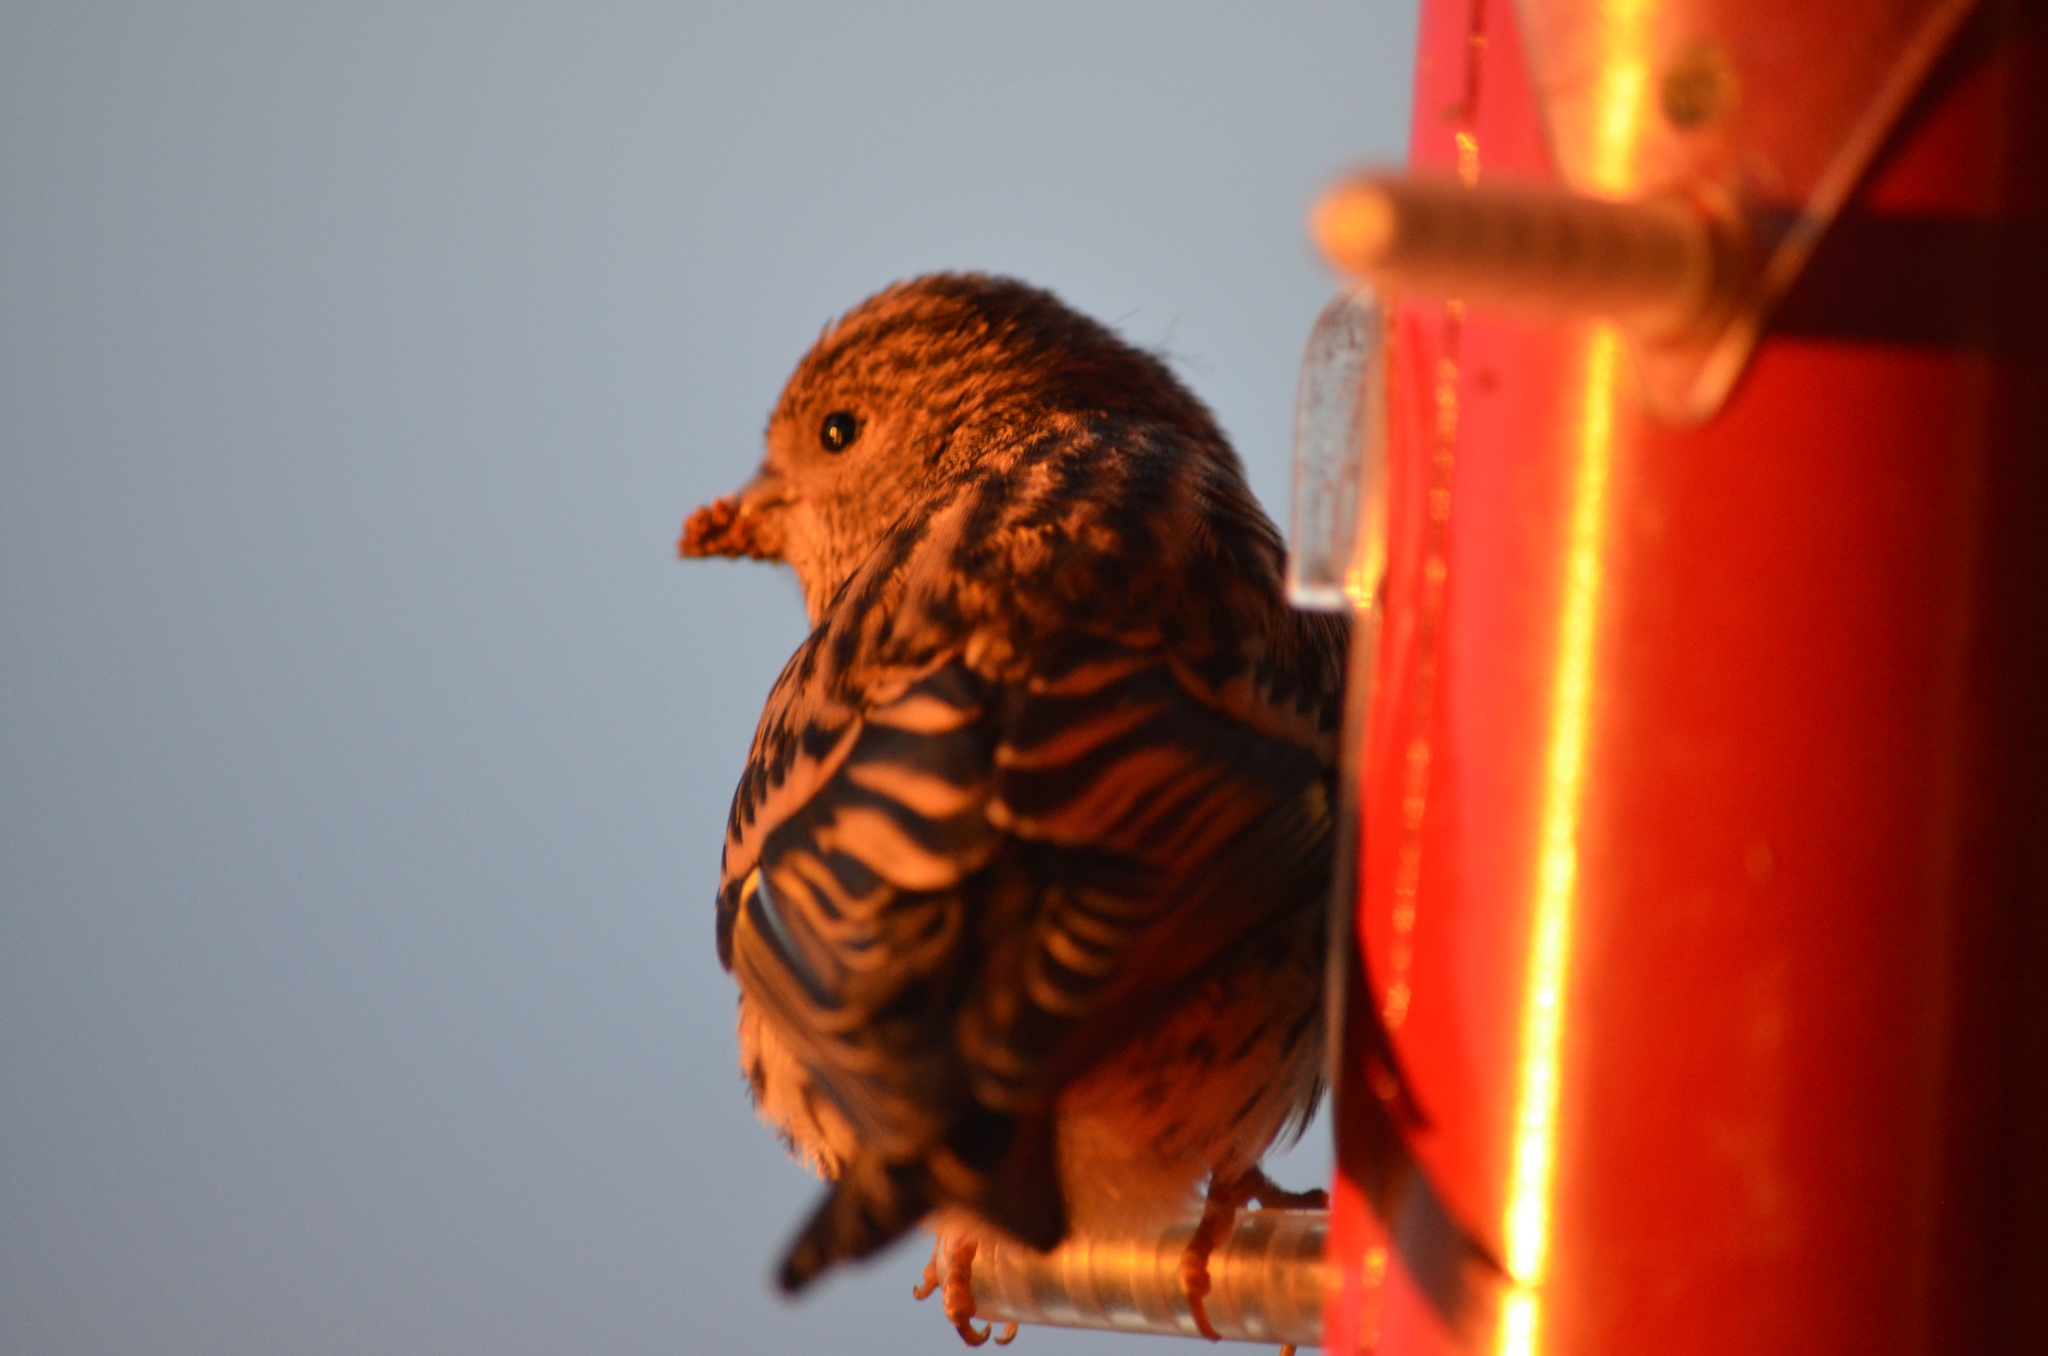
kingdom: Animalia
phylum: Chordata
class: Aves
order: Passeriformes
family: Fringillidae
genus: Spinus
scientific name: Spinus pinus
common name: Pine siskin
